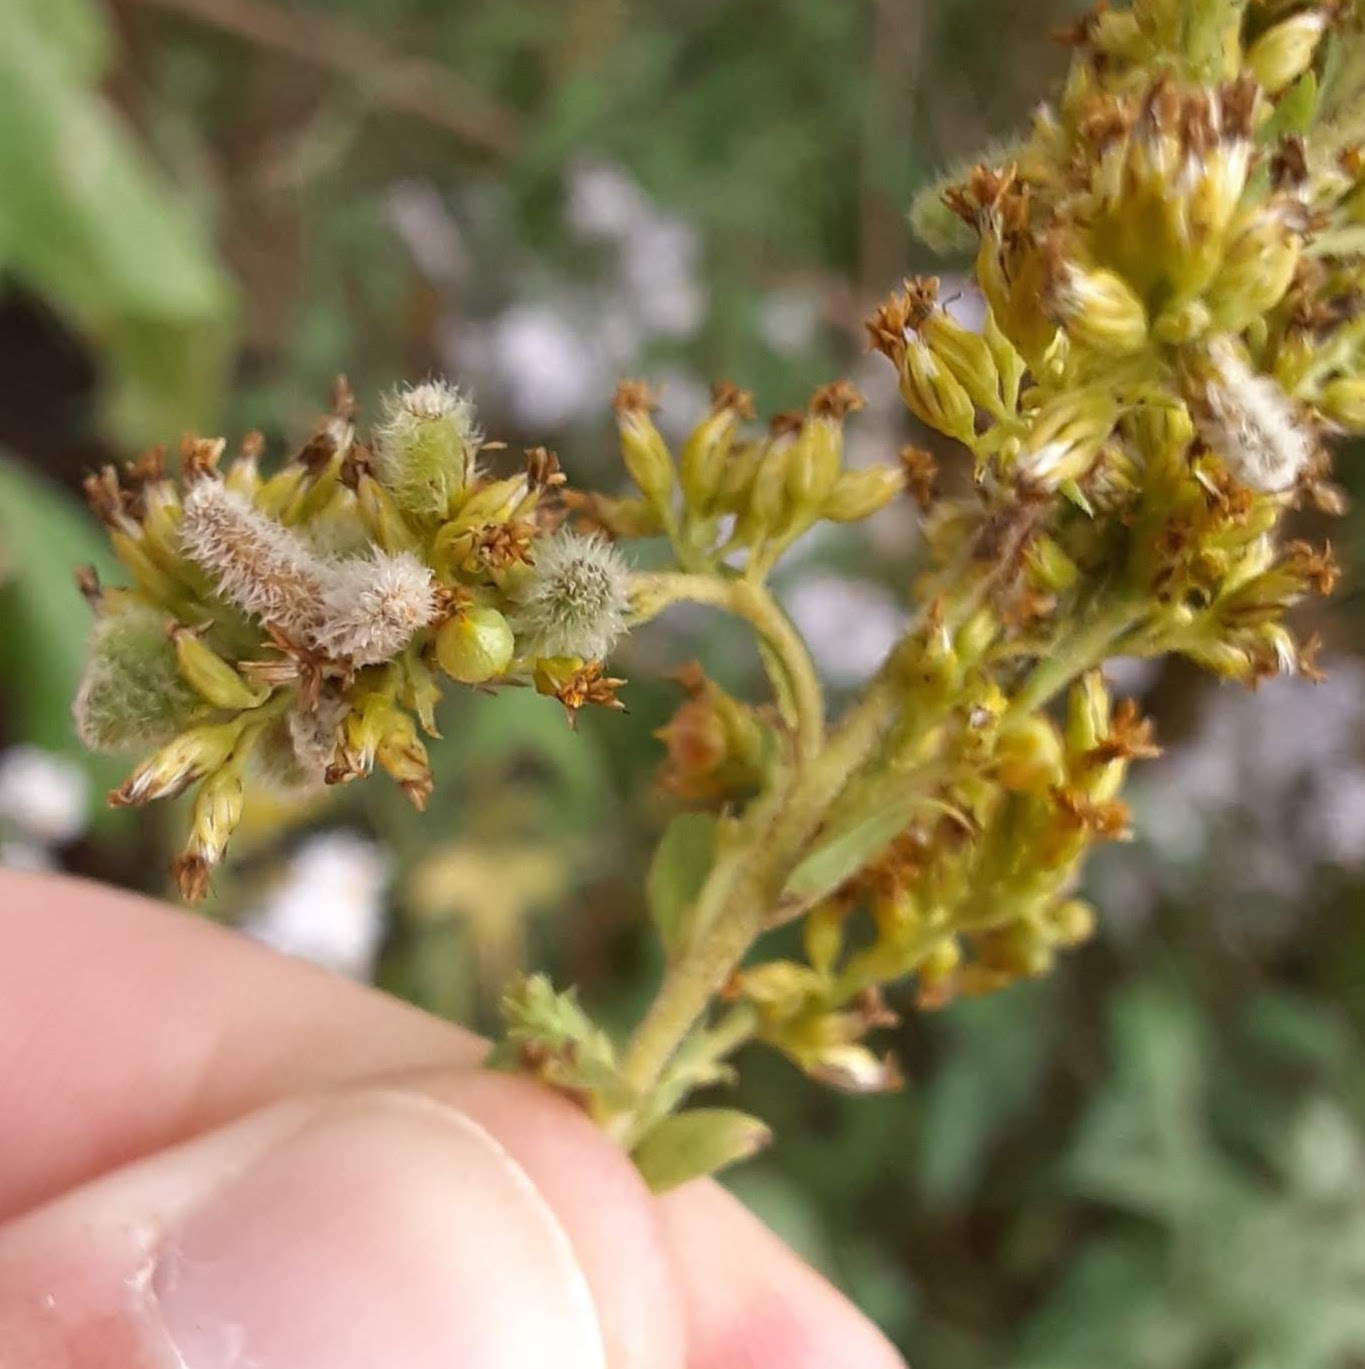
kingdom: Animalia
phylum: Arthropoda
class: Insecta
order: Diptera
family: Cecidomyiidae
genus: Rhopalomyia
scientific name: Rhopalomyia anthophila
